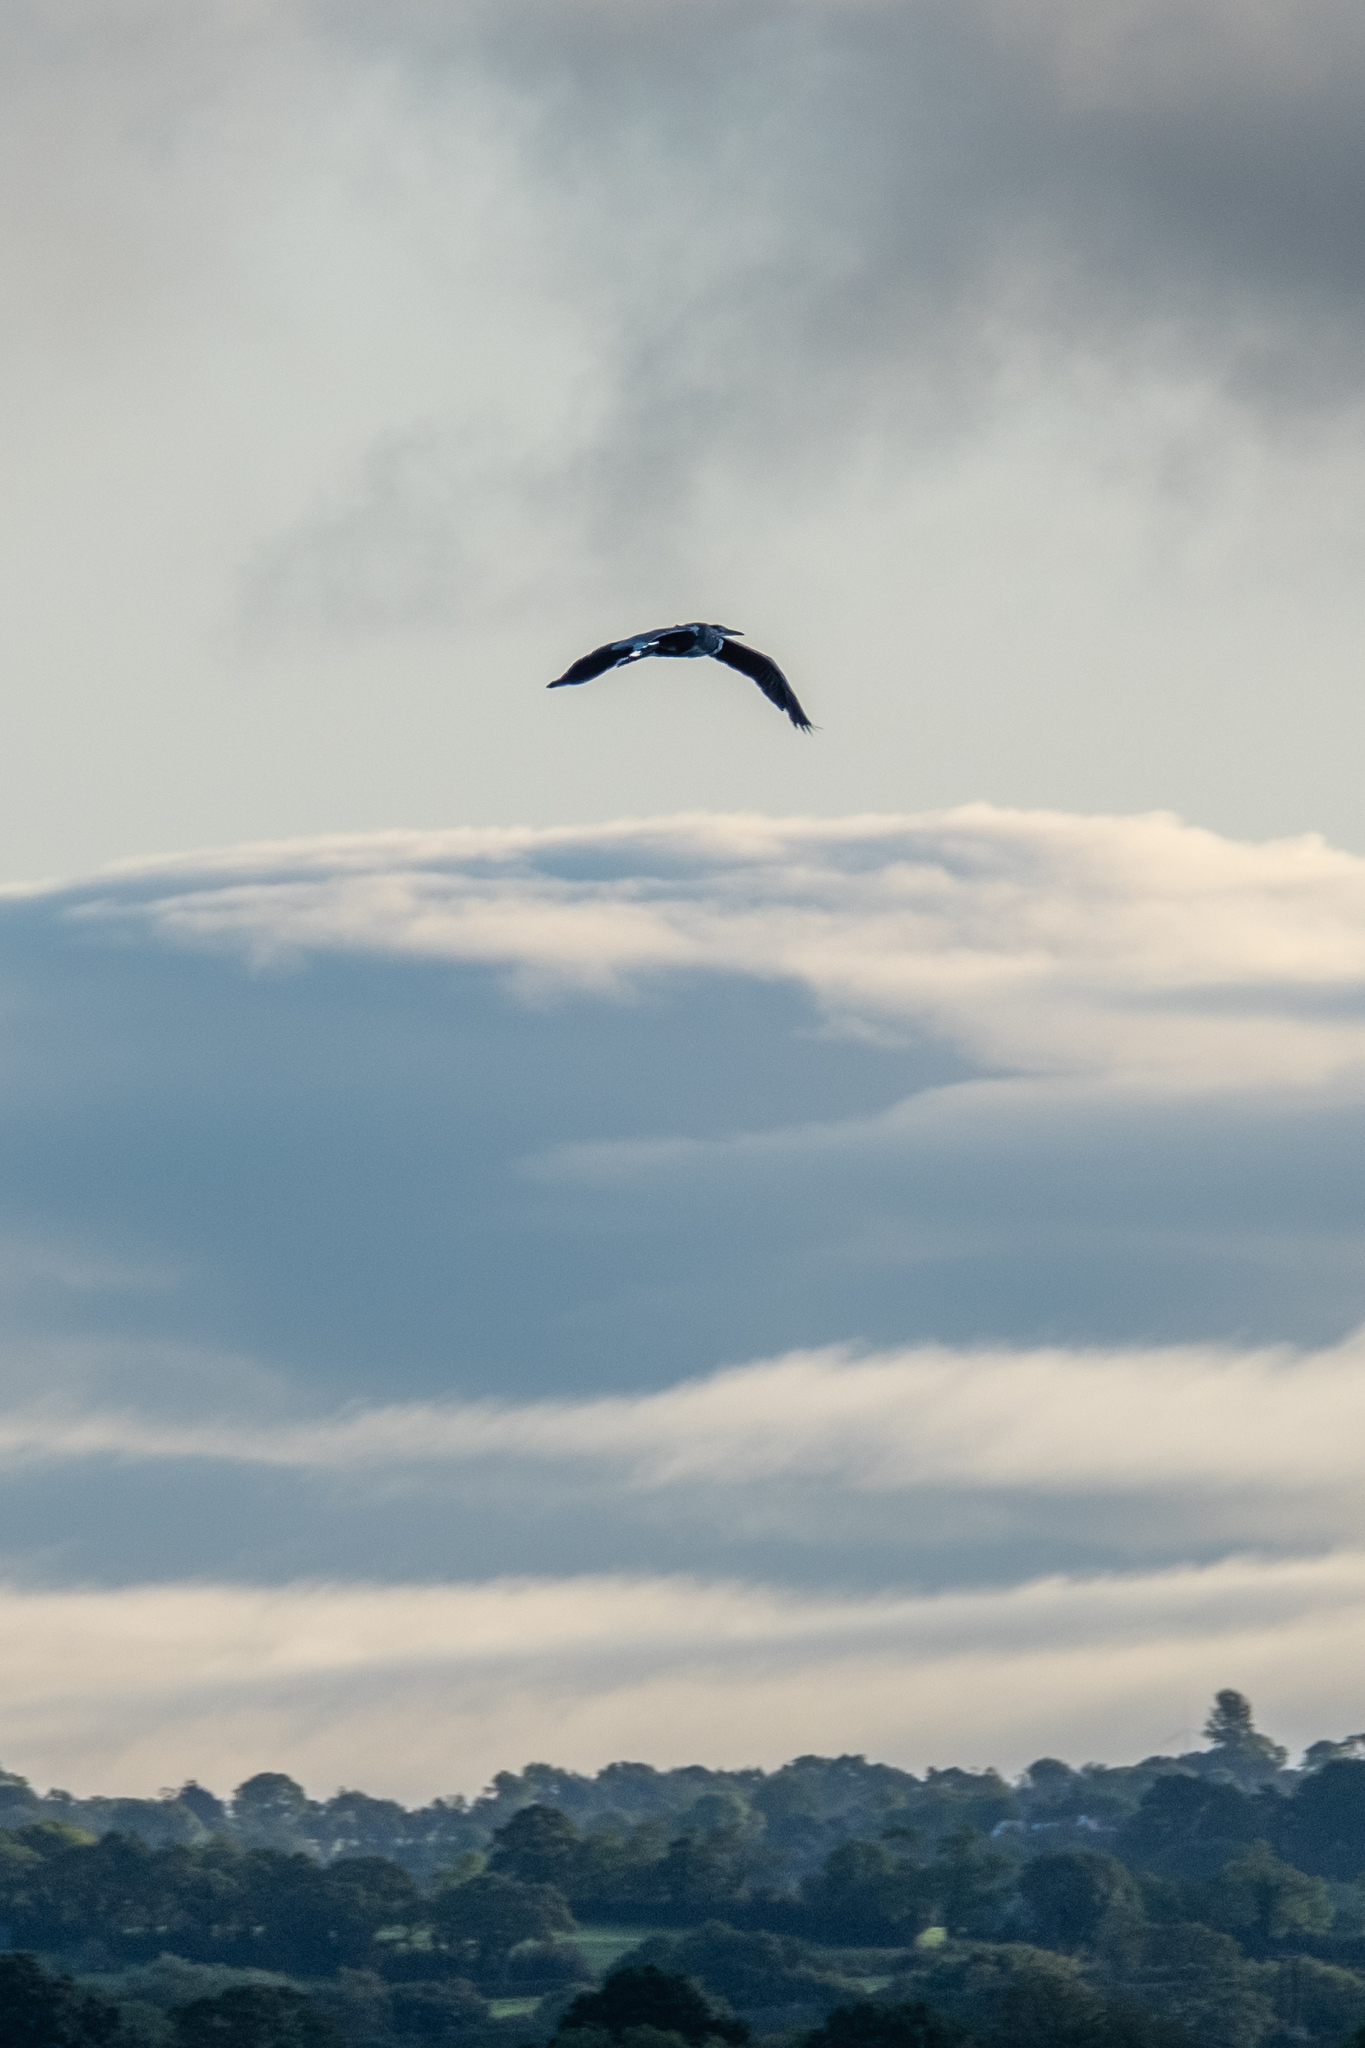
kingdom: Animalia
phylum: Chordata
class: Aves
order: Pelecaniformes
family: Ardeidae
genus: Ardea
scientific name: Ardea cinerea
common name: Grey heron
